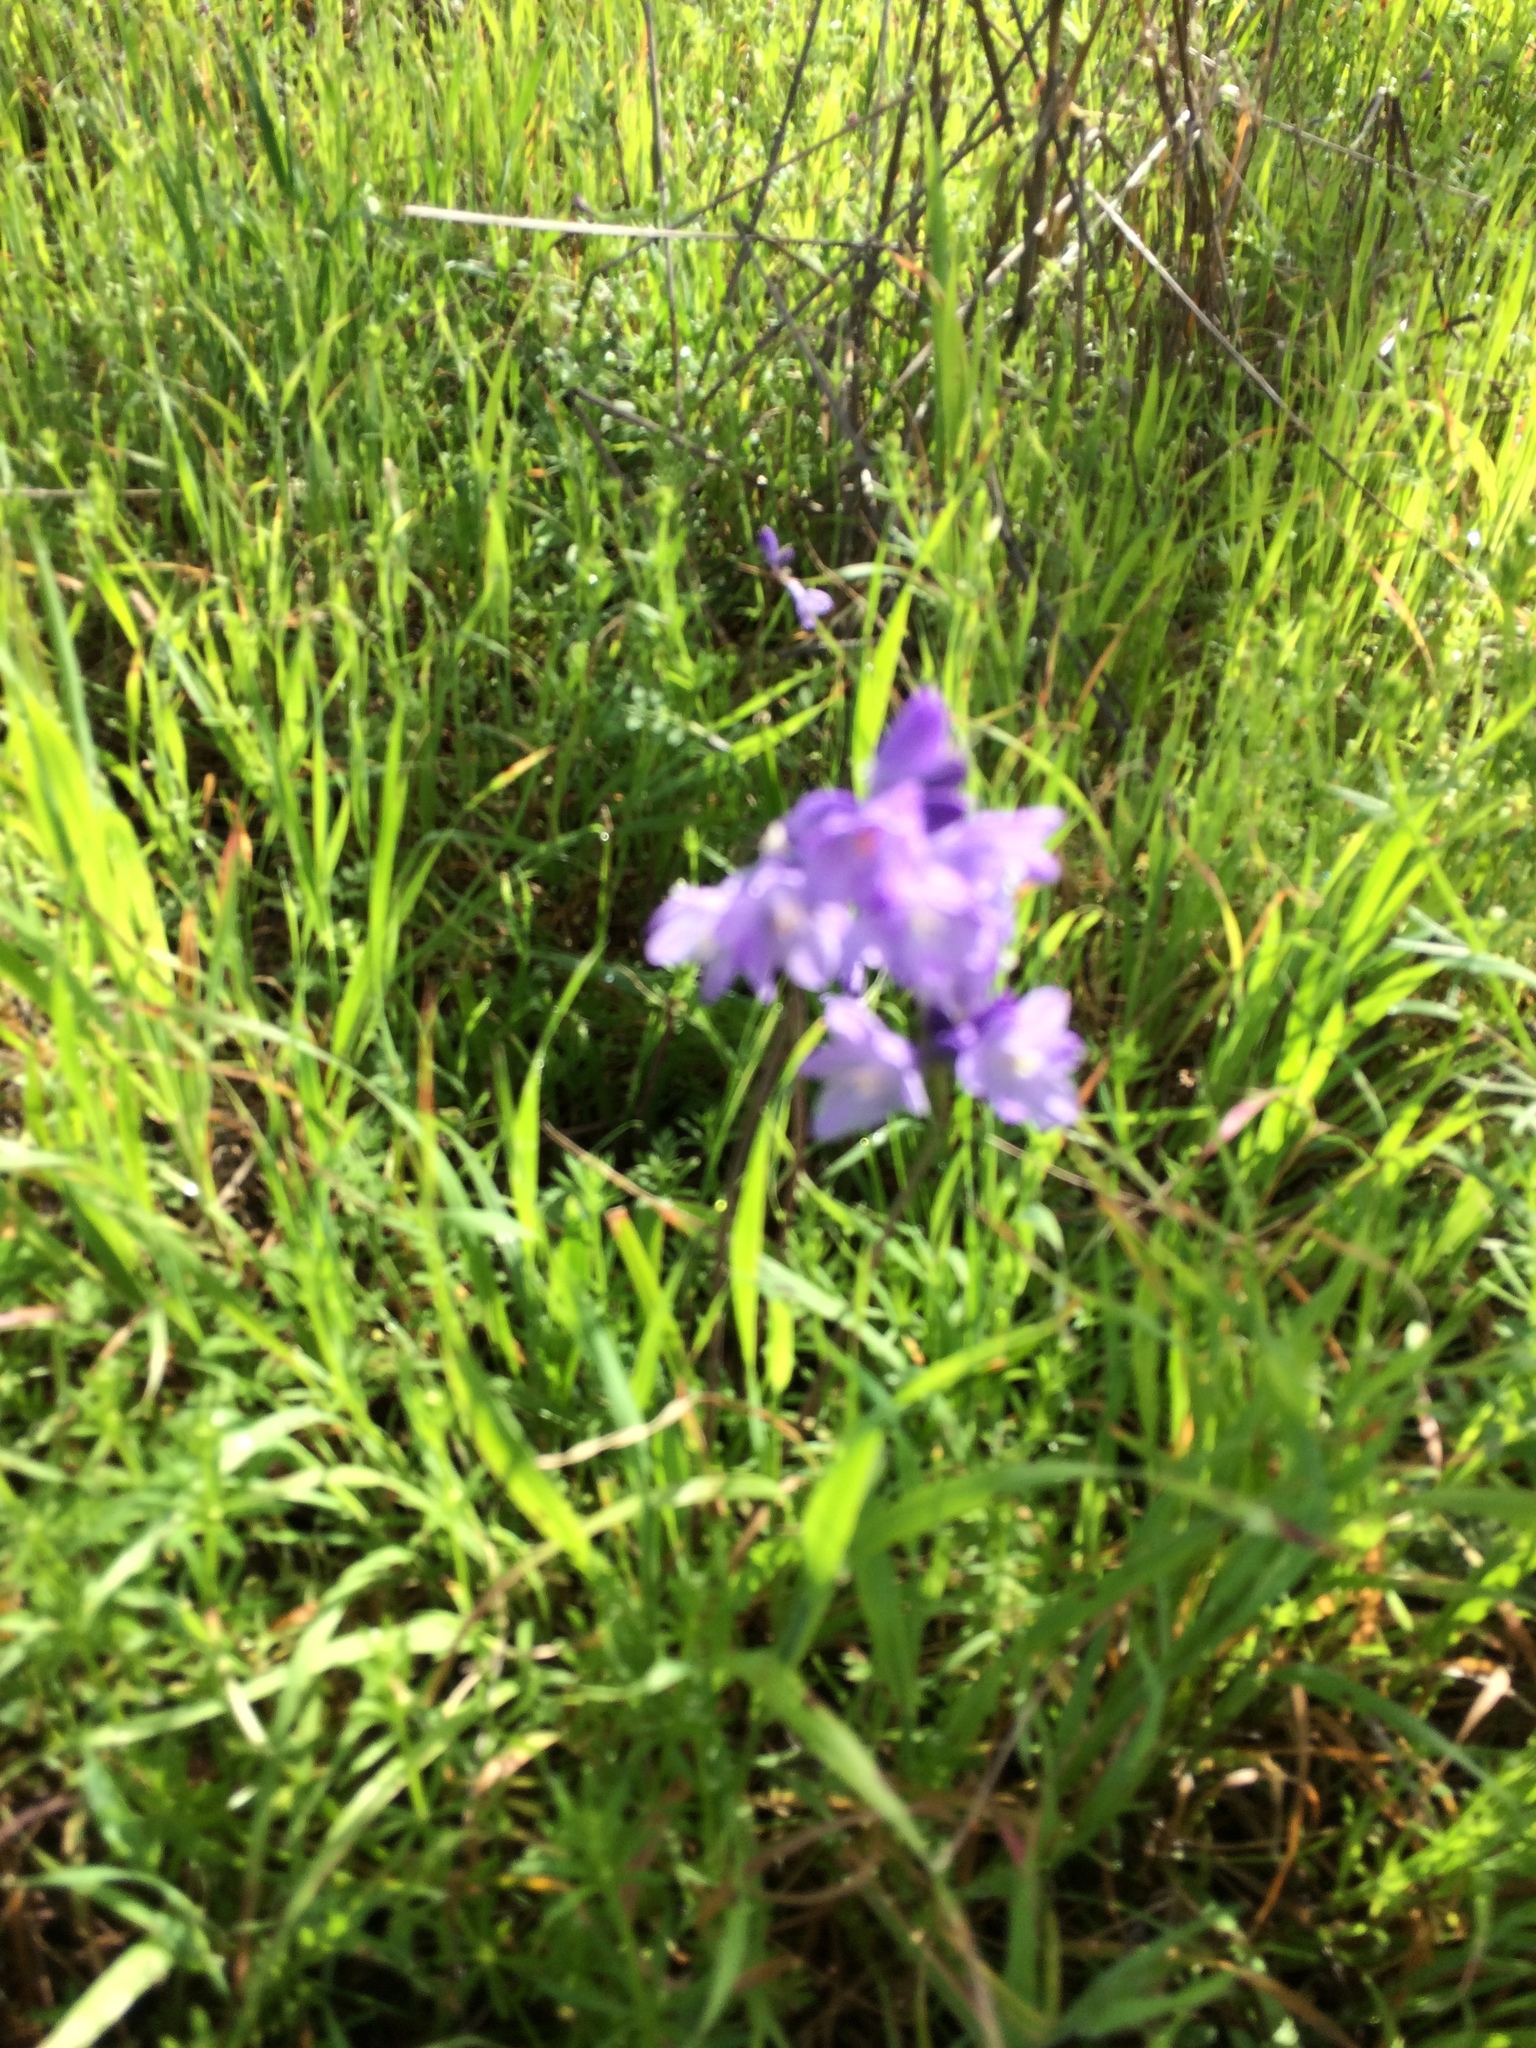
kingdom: Plantae
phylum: Tracheophyta
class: Liliopsida
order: Asparagales
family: Asparagaceae
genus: Dipterostemon
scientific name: Dipterostemon capitatus
